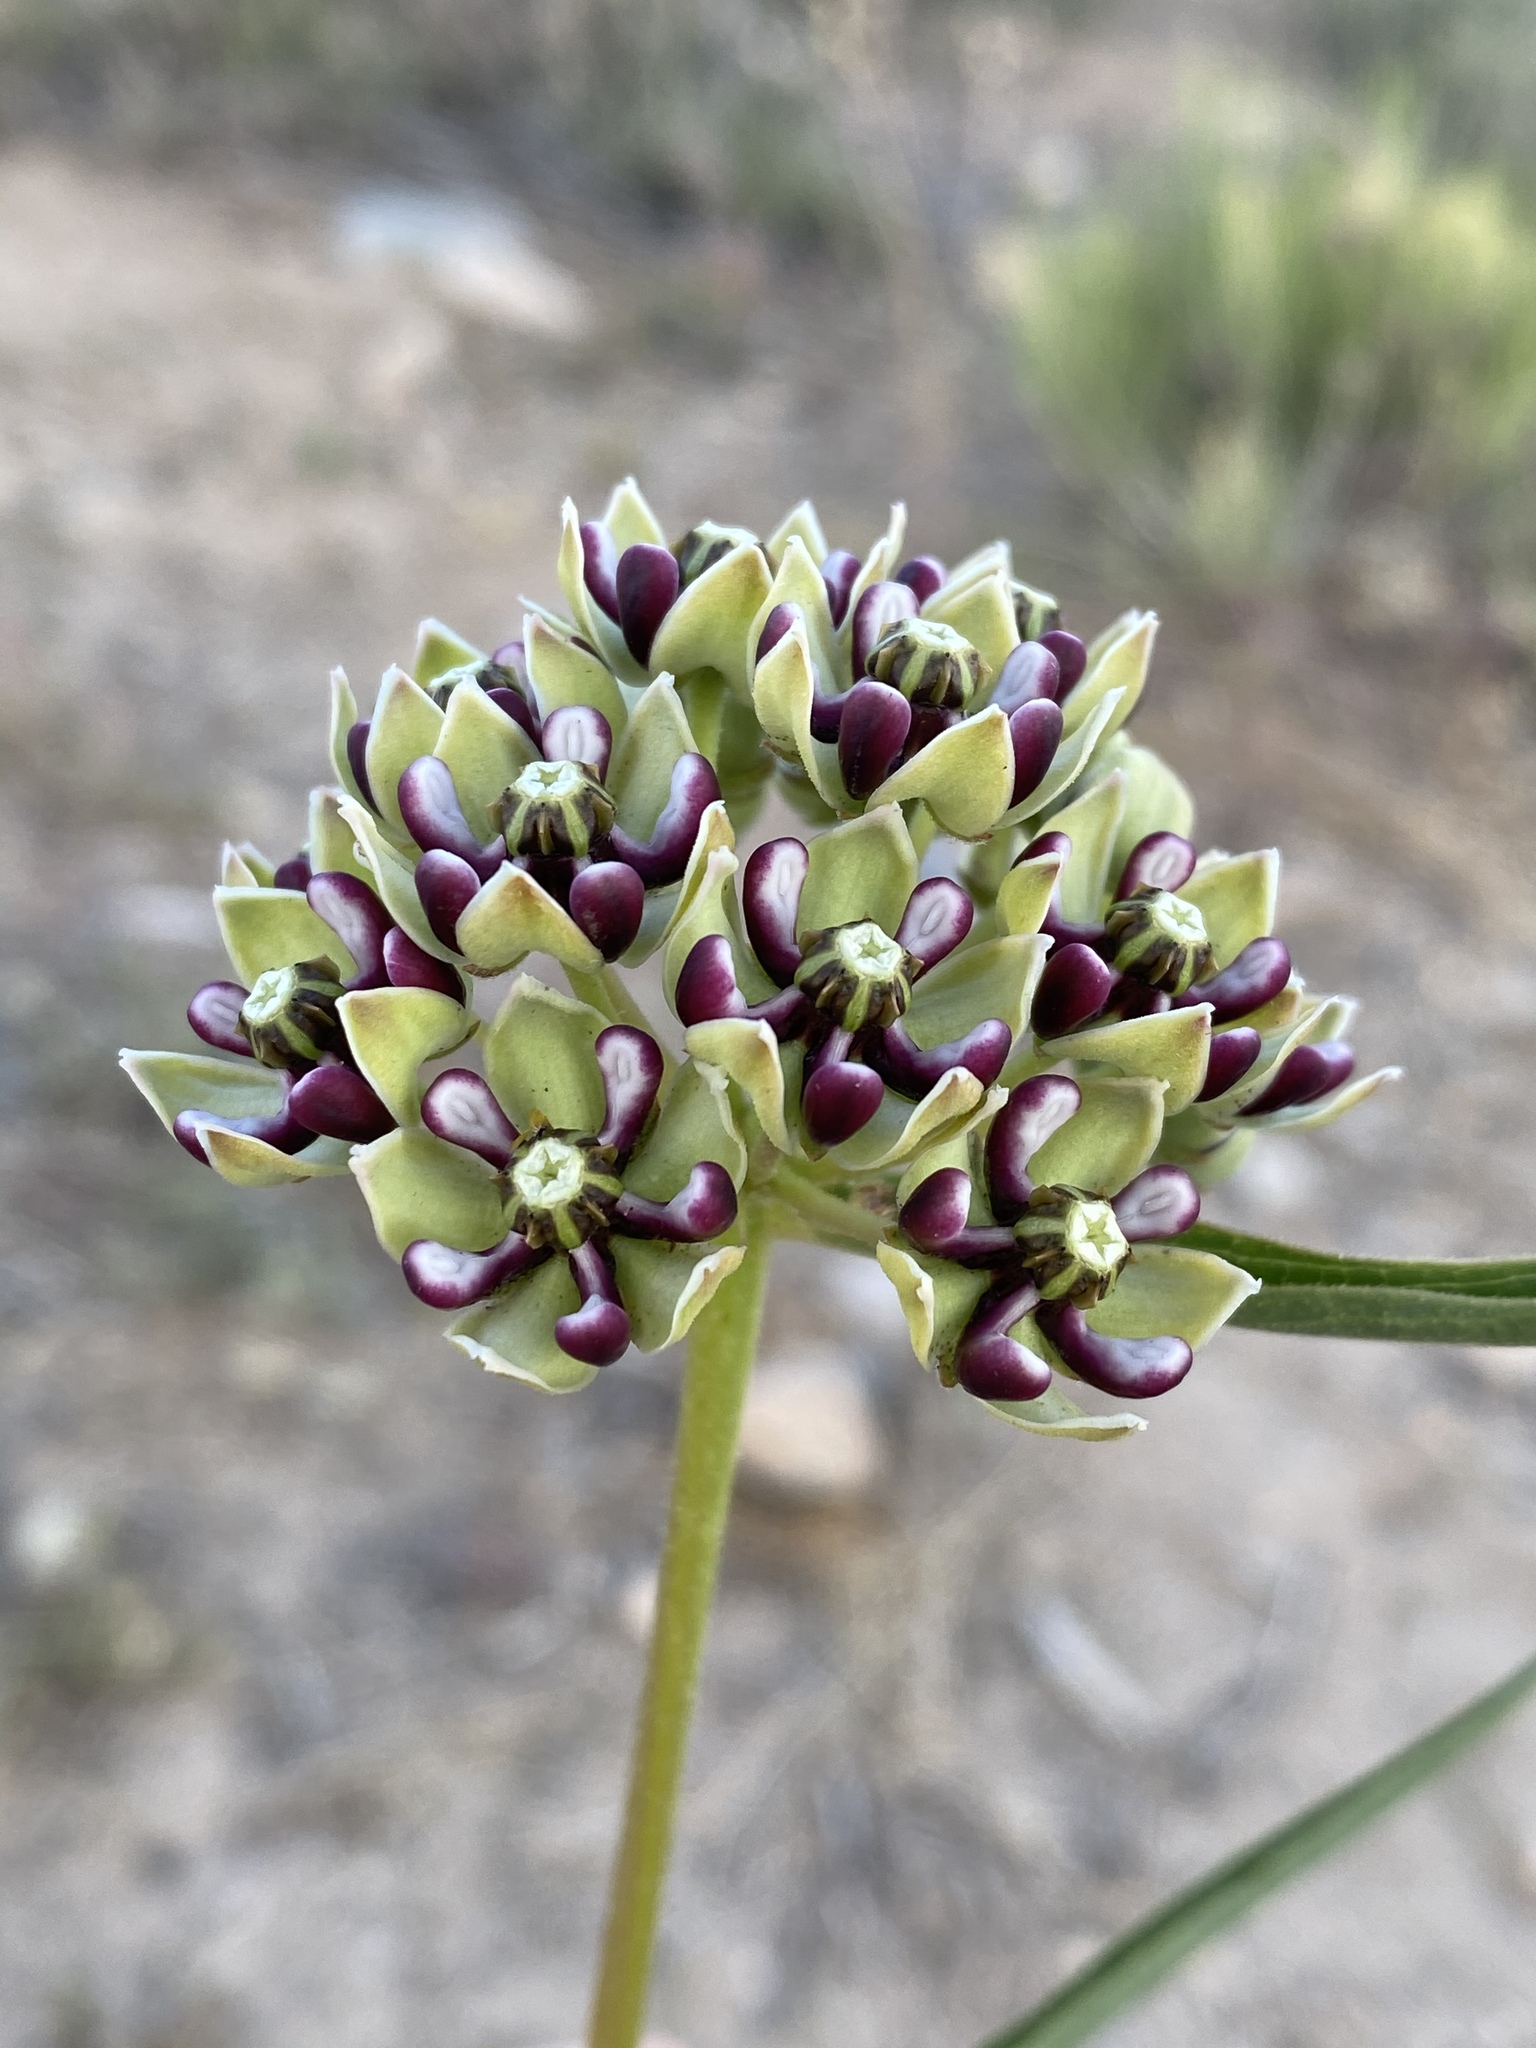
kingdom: Plantae
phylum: Tracheophyta
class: Magnoliopsida
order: Gentianales
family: Apocynaceae
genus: Asclepias
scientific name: Asclepias asperula
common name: Antelope horns
